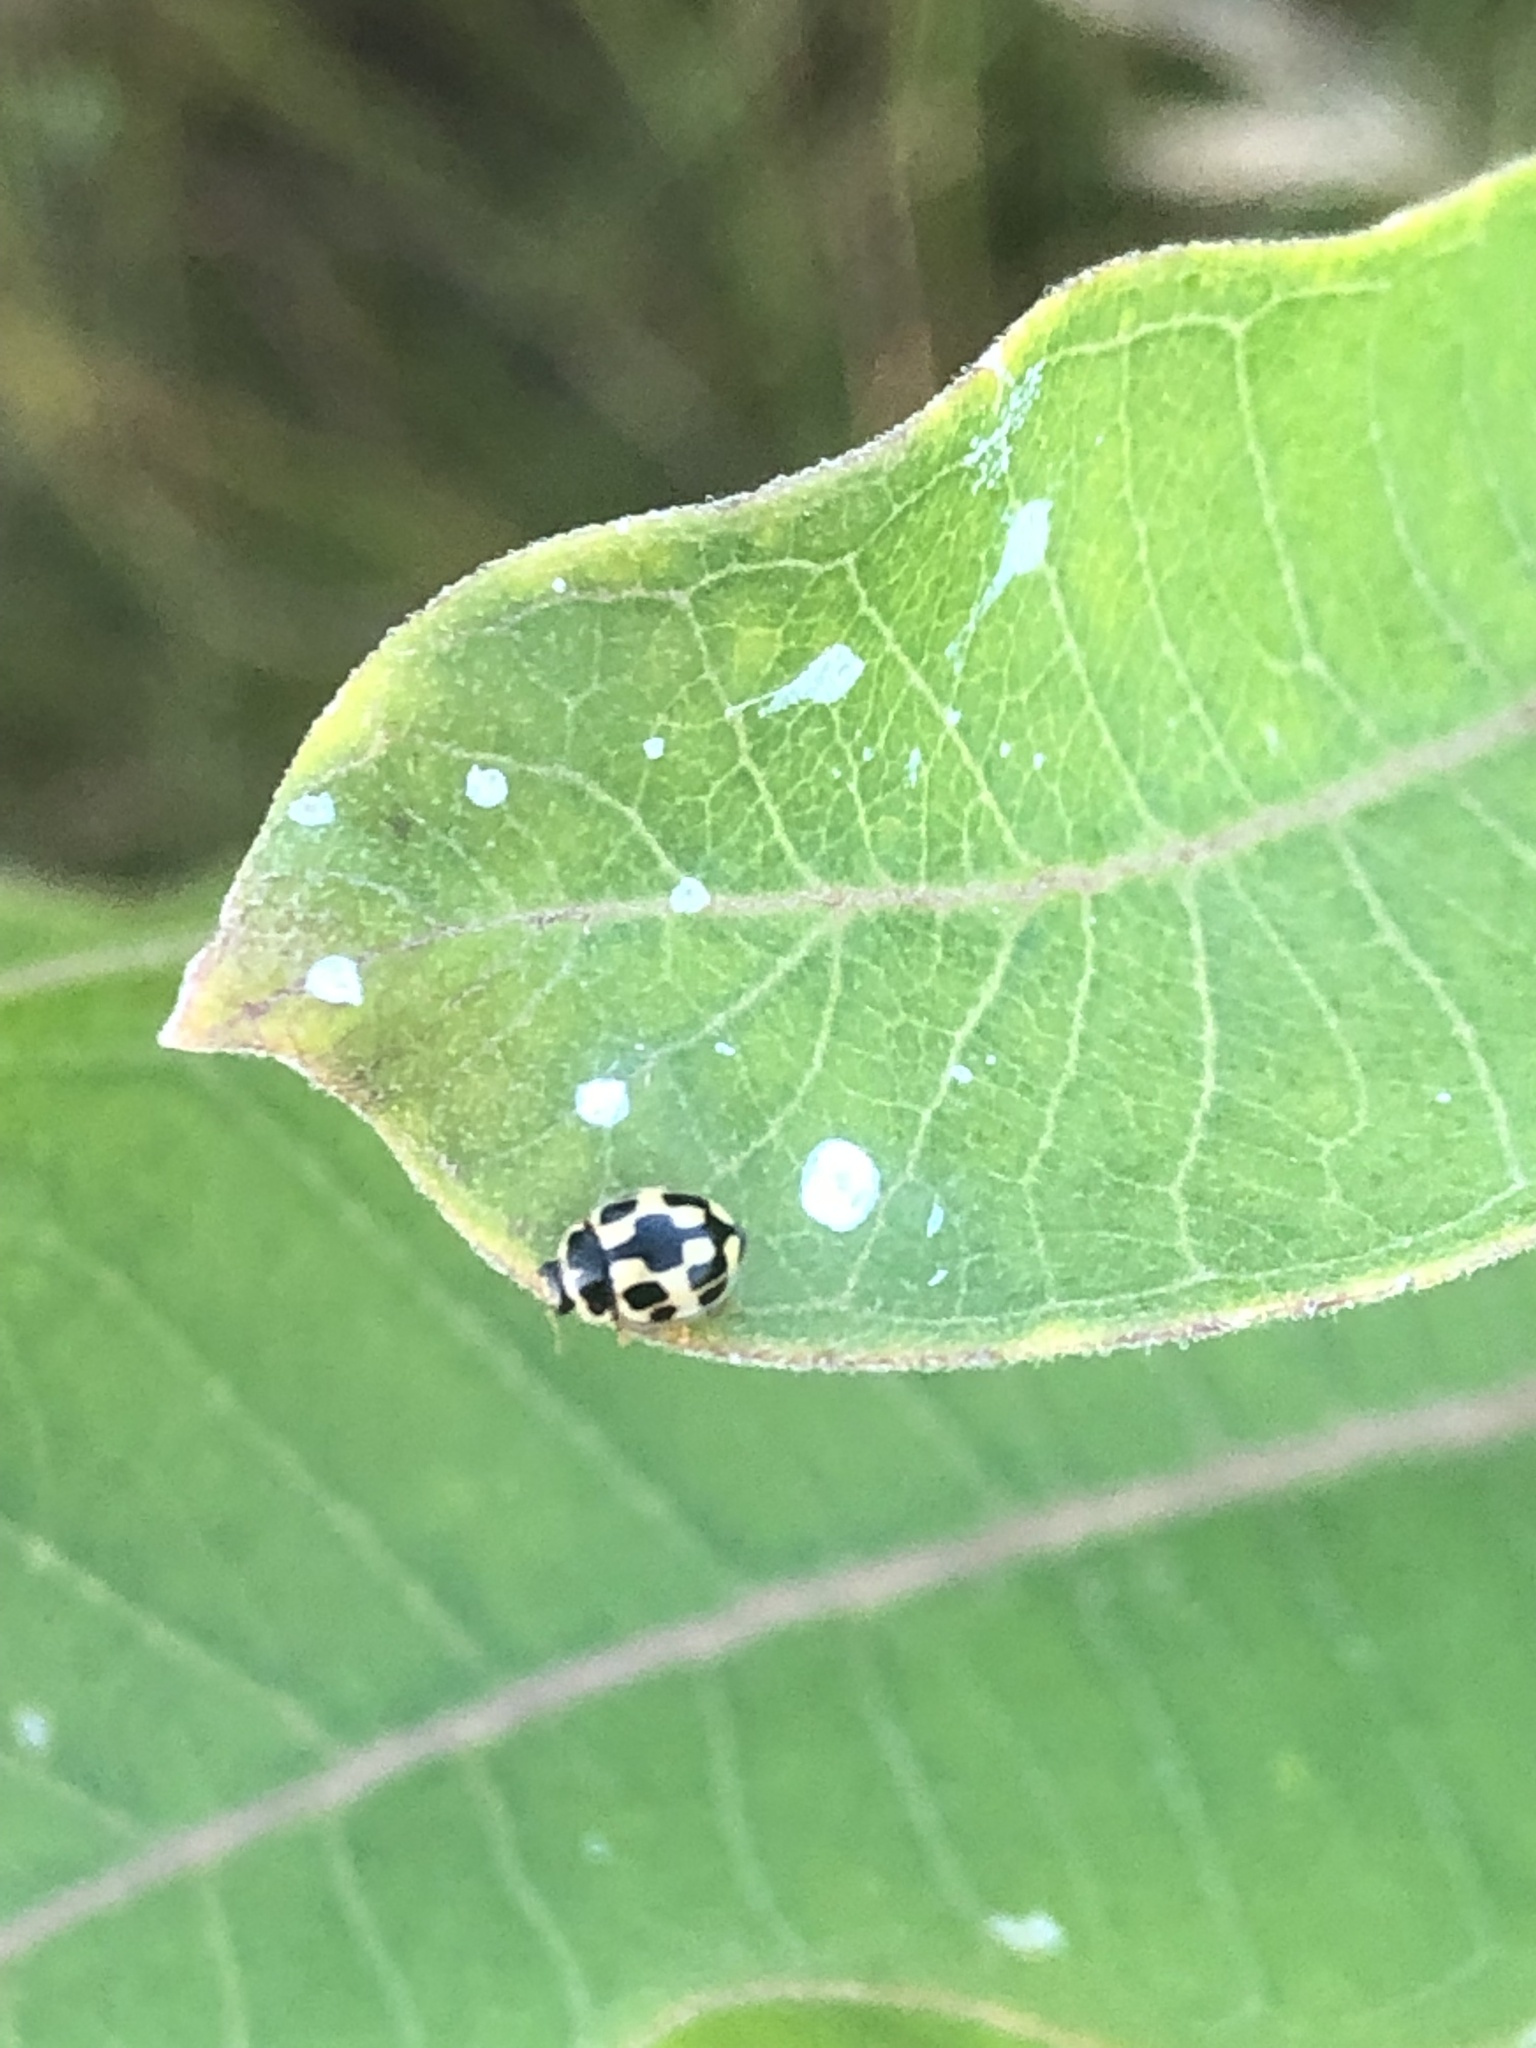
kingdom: Animalia
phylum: Arthropoda
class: Insecta
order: Coleoptera
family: Coccinellidae
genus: Propylaea
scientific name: Propylaea quatuordecimpunctata
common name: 14-spotted ladybird beetle
